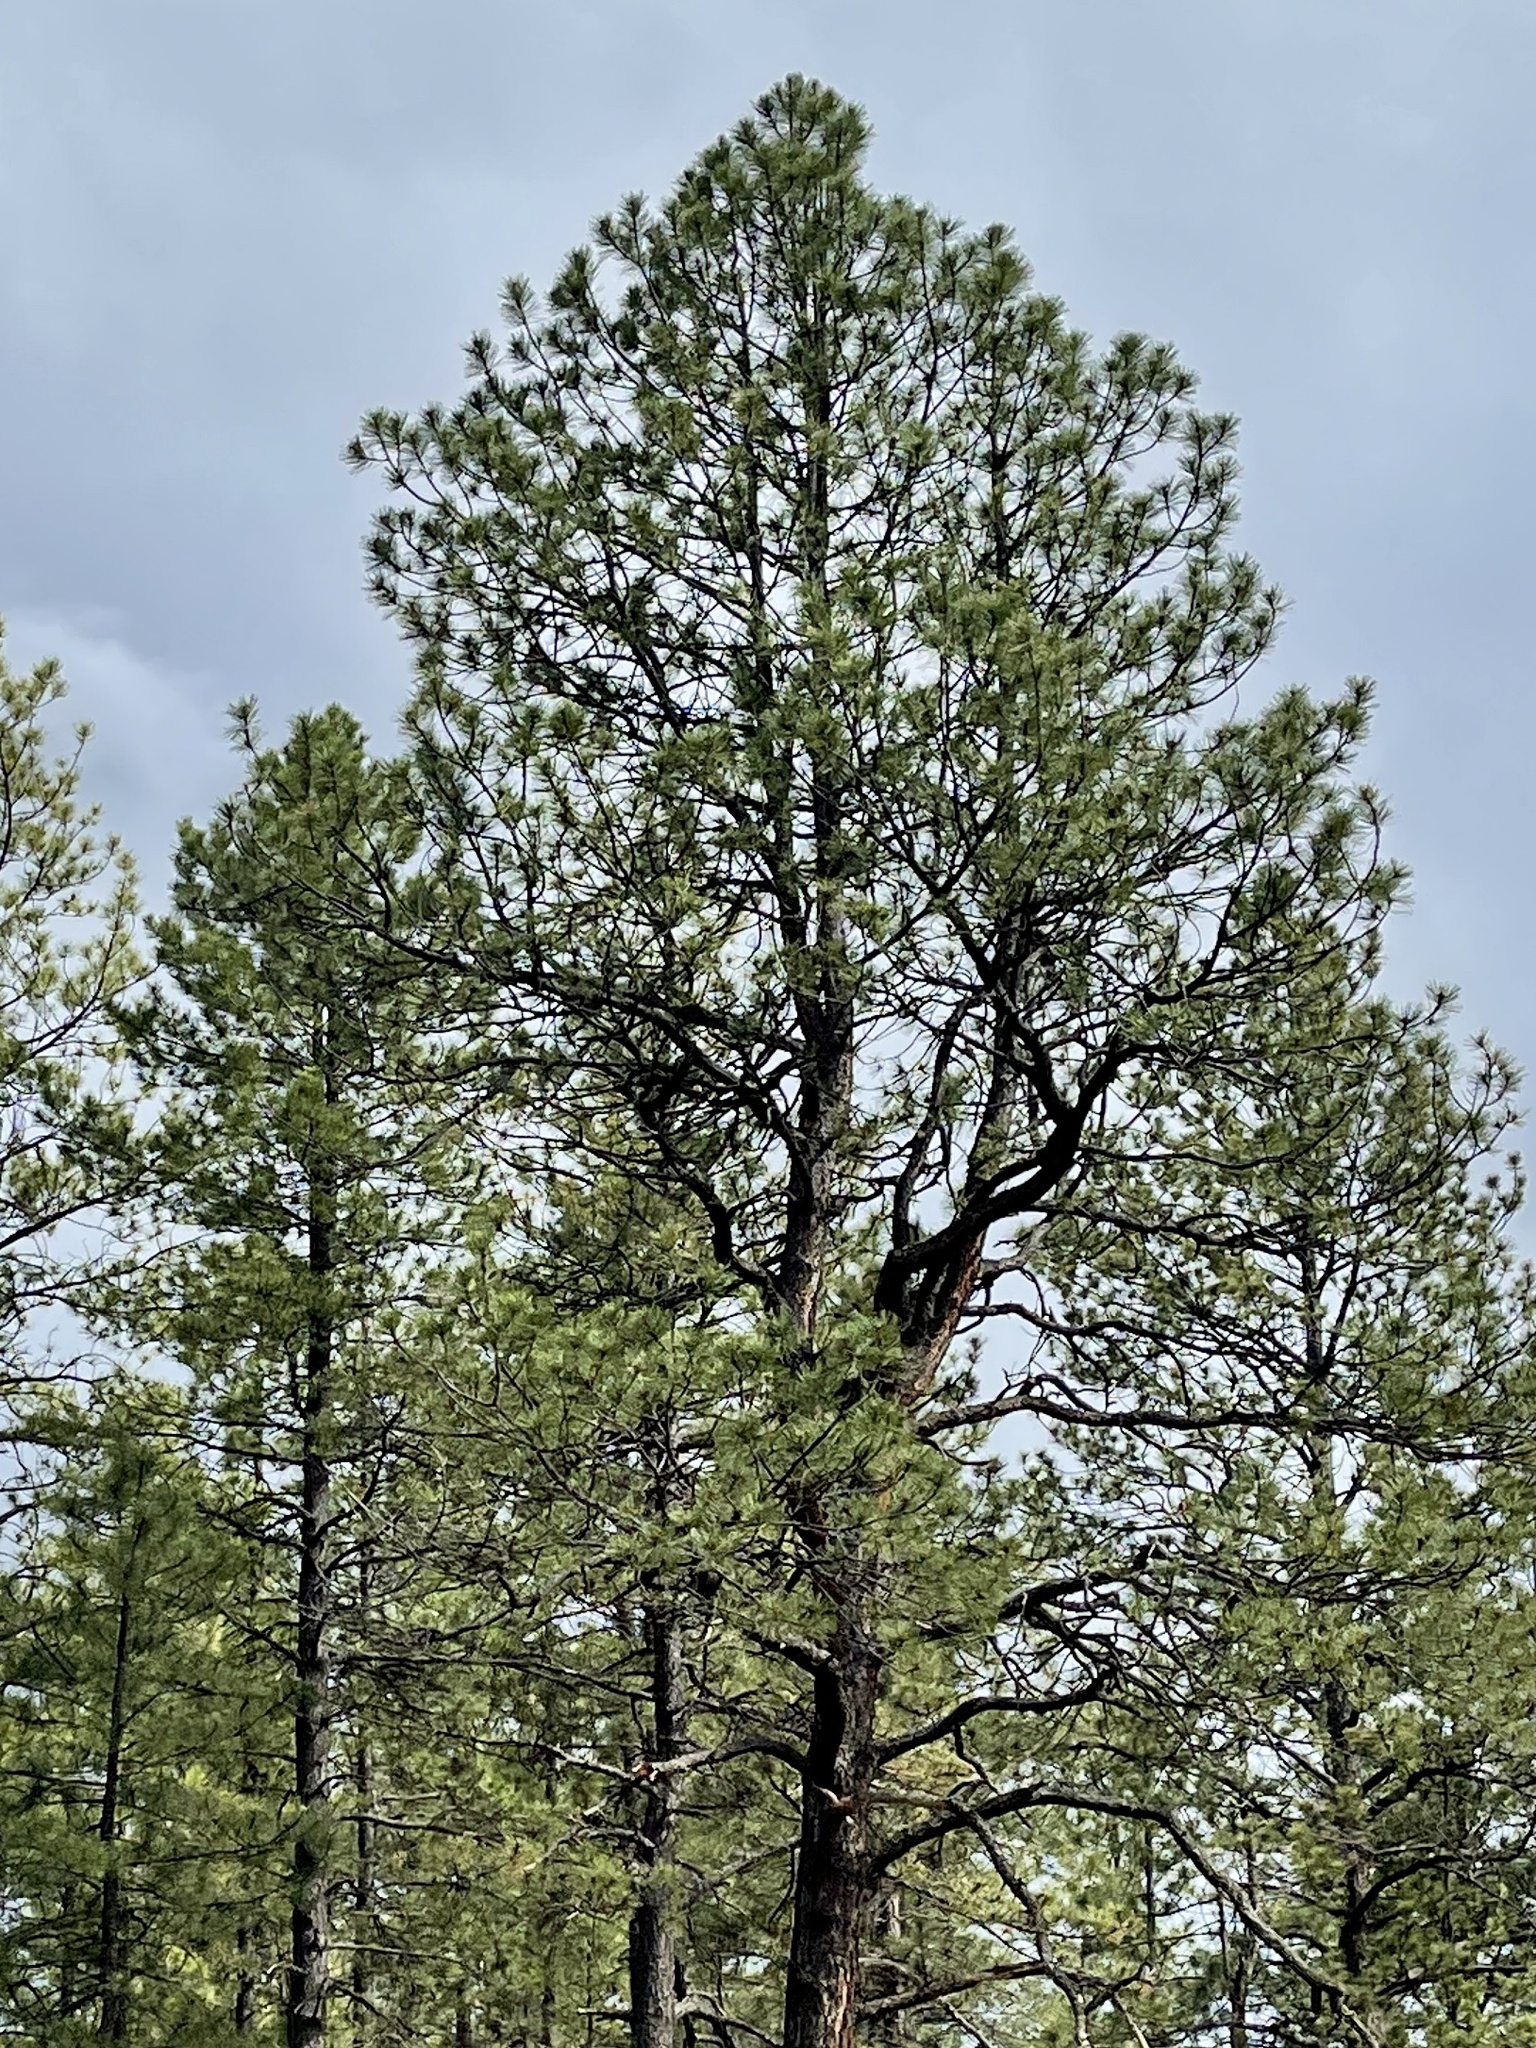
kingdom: Plantae
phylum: Tracheophyta
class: Pinopsida
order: Pinales
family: Pinaceae
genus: Pinus
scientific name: Pinus ponderosa
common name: Western yellow-pine
